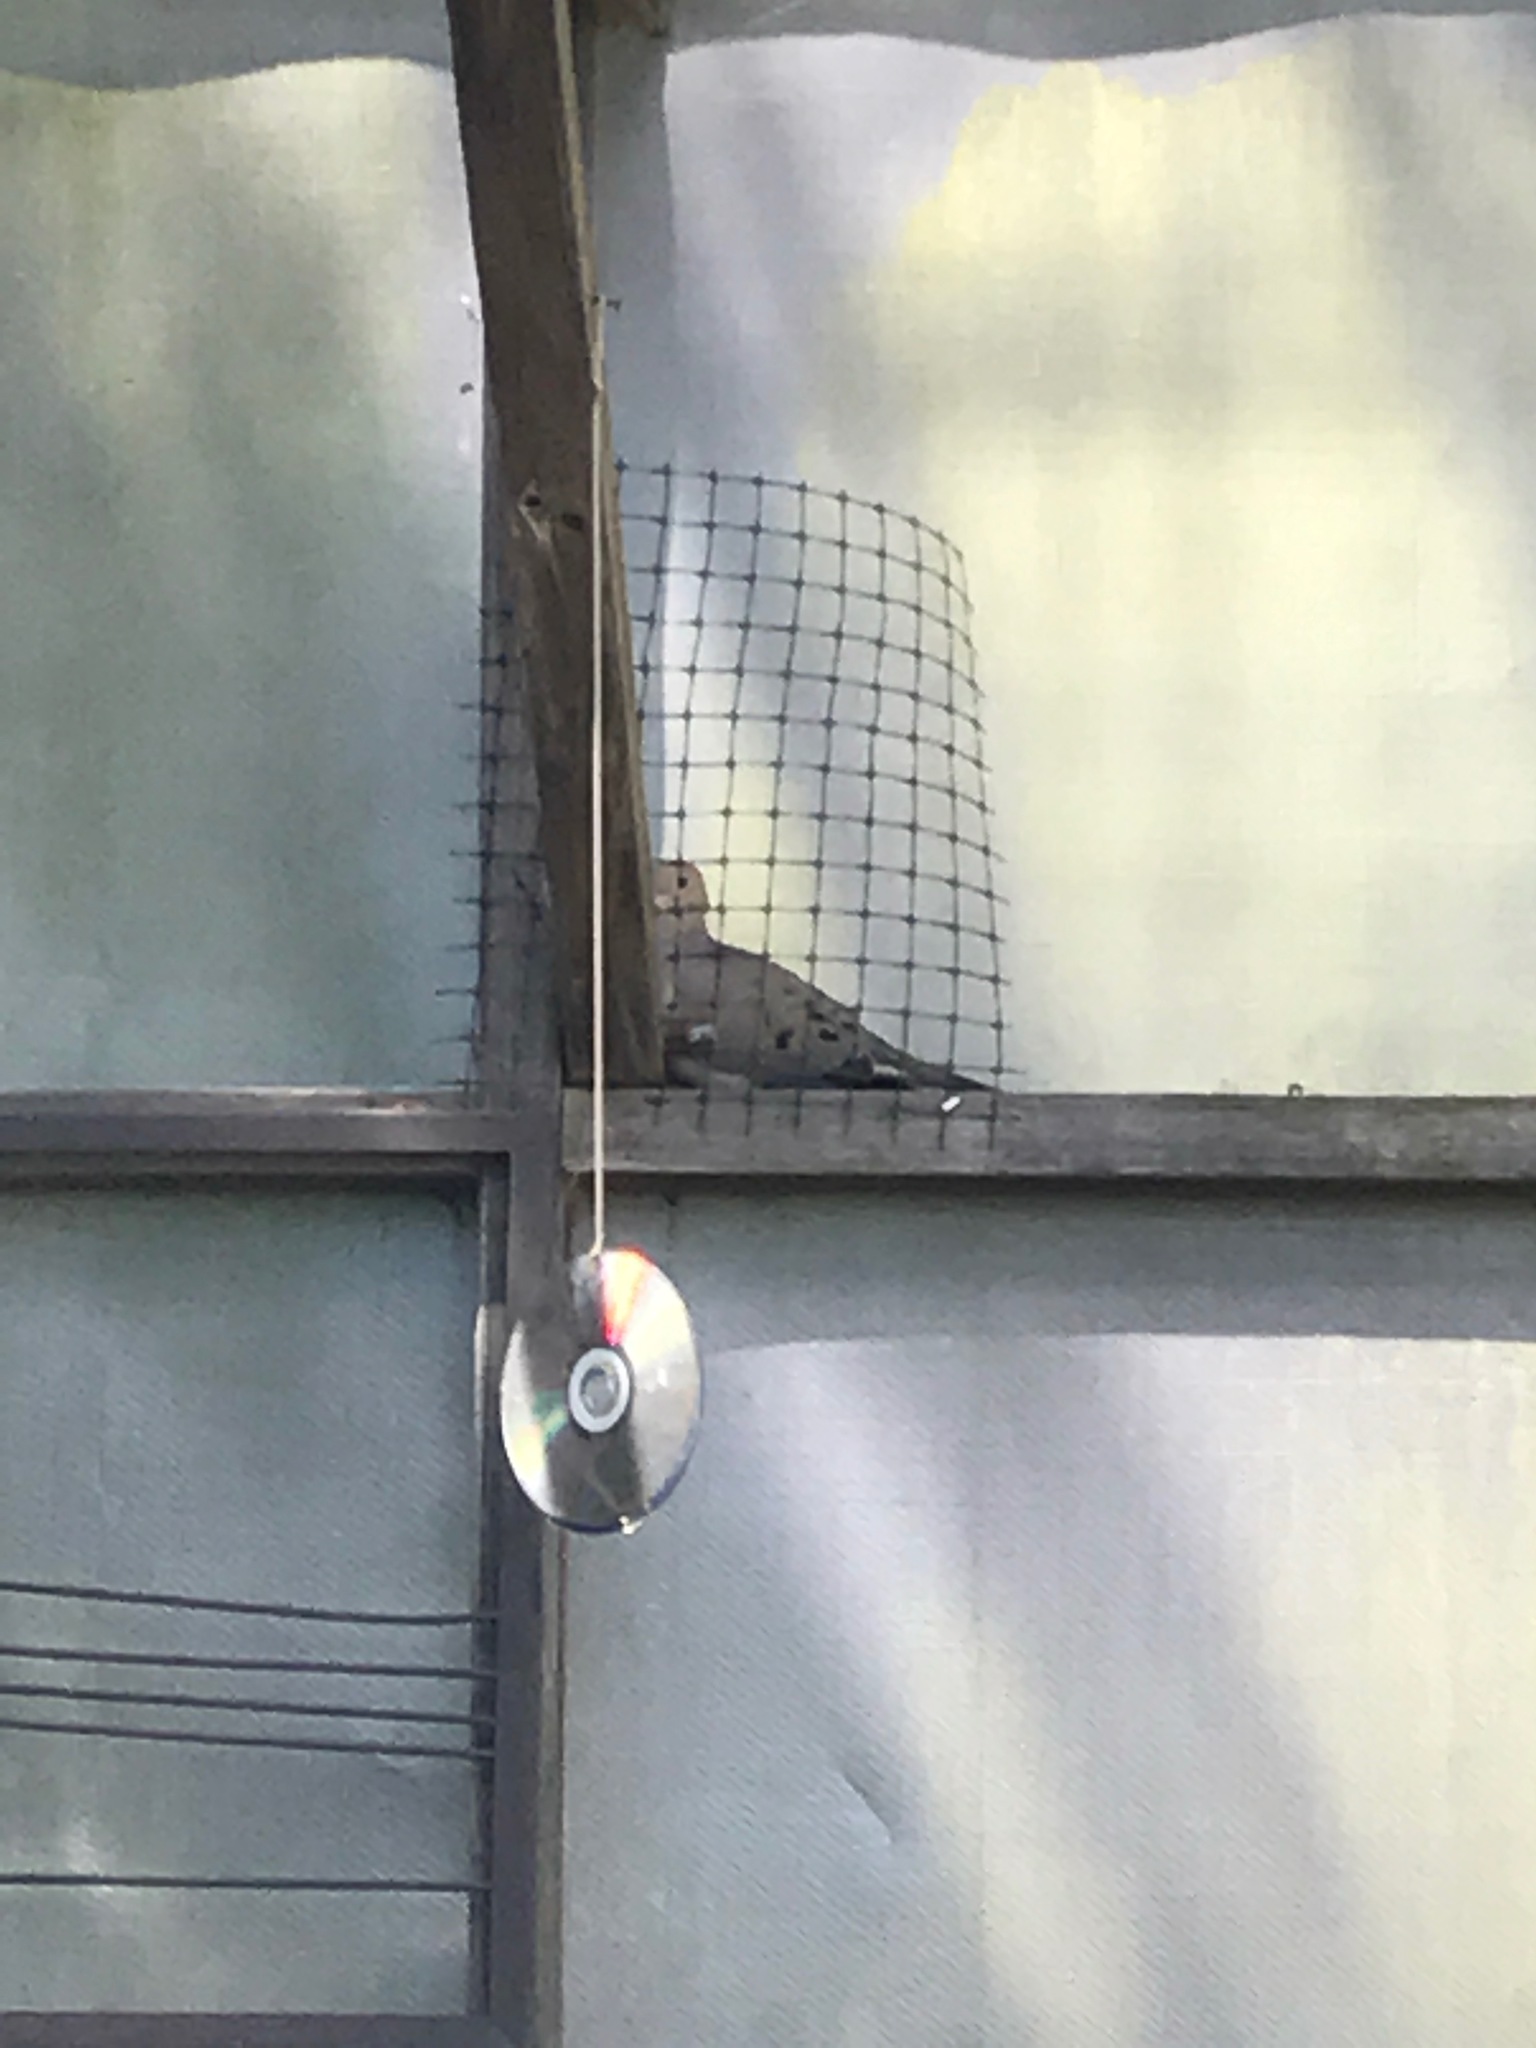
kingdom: Animalia
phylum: Chordata
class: Aves
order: Columbiformes
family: Columbidae
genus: Zenaida
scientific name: Zenaida macroura
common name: Mourning dove
